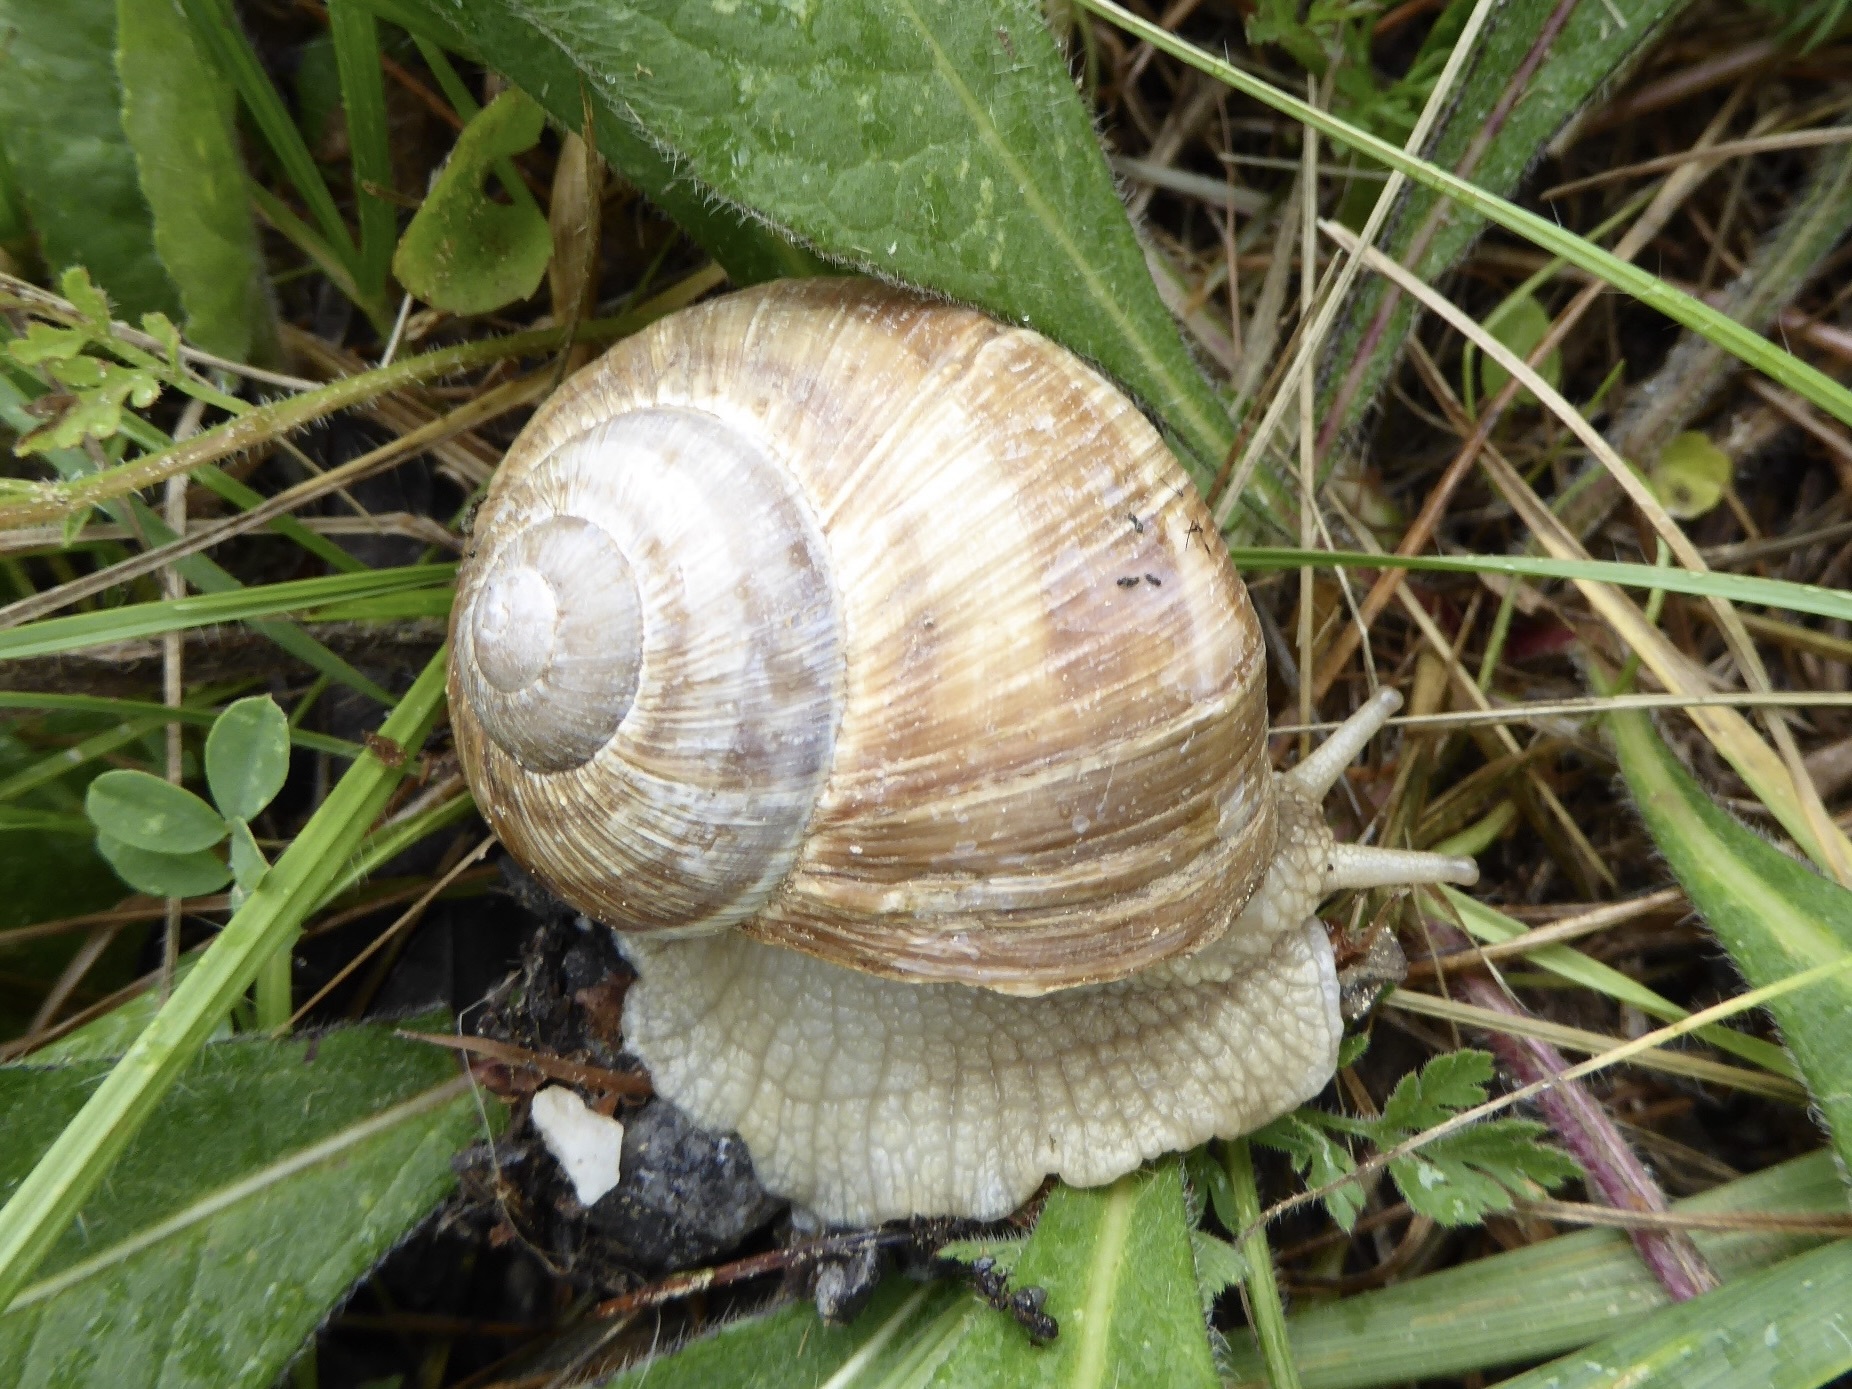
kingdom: Animalia
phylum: Mollusca
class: Gastropoda
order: Stylommatophora
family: Helicidae
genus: Helix
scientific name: Helix pomatia
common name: Roman snail
